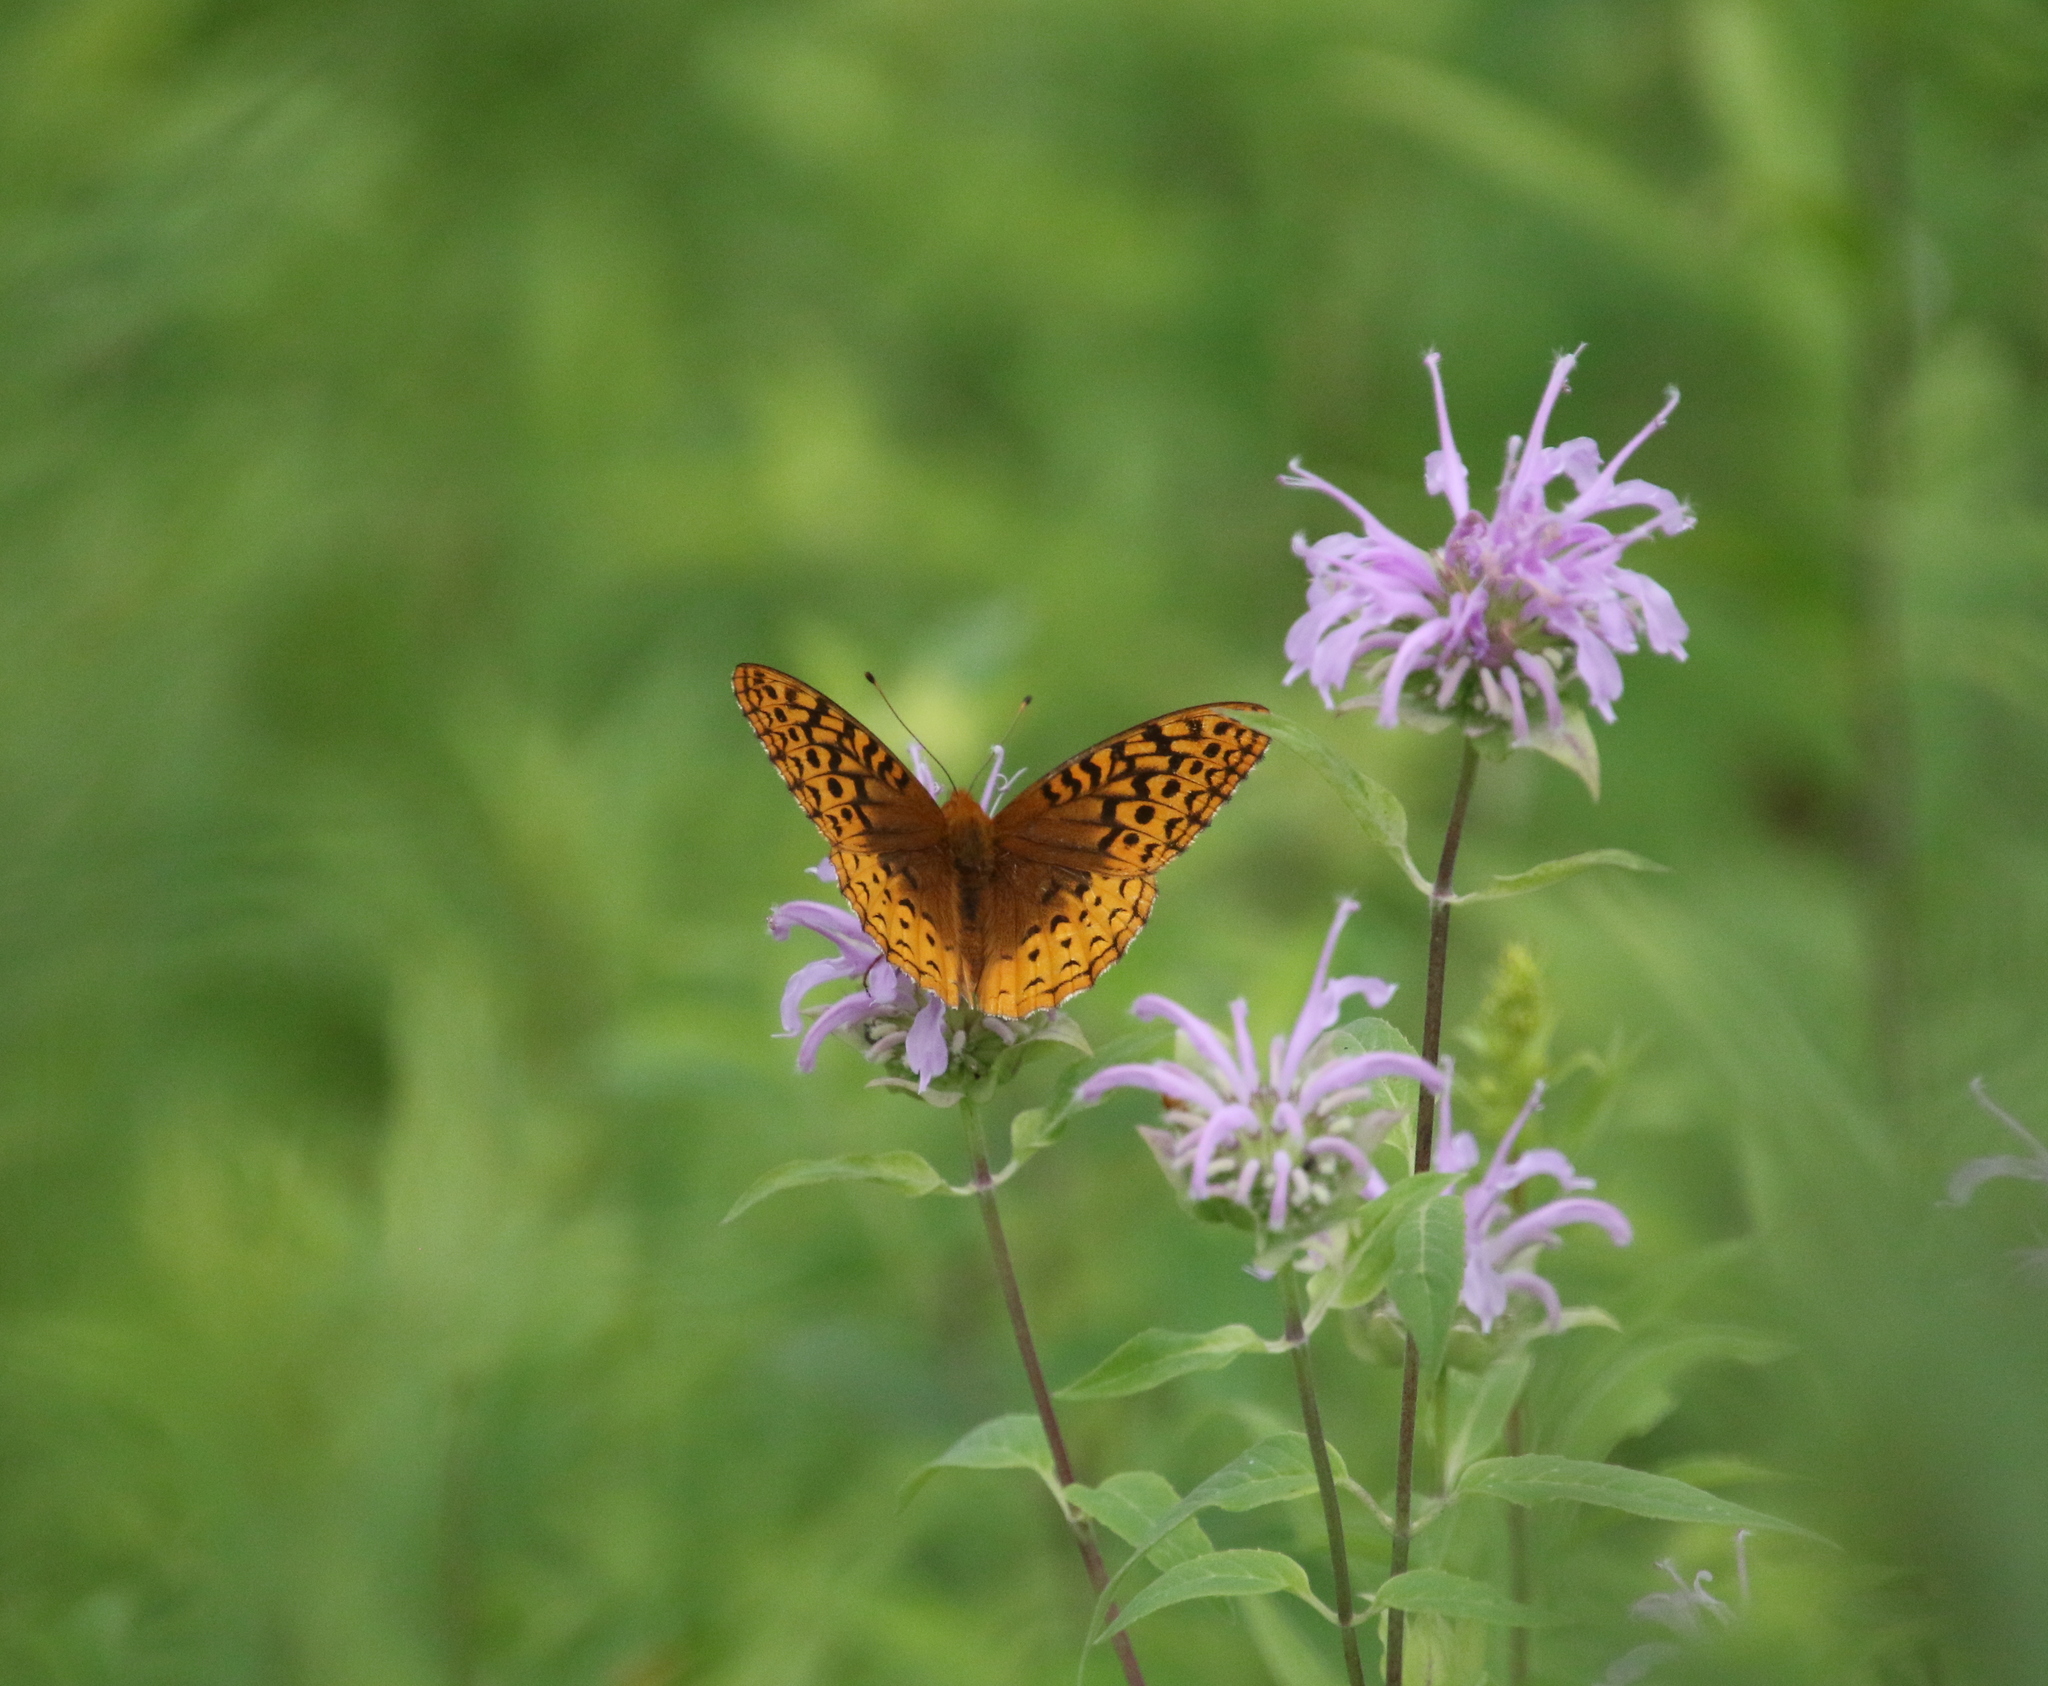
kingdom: Animalia
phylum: Arthropoda
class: Insecta
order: Lepidoptera
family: Nymphalidae
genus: Speyeria
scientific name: Speyeria cybele
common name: Great spangled fritillary
